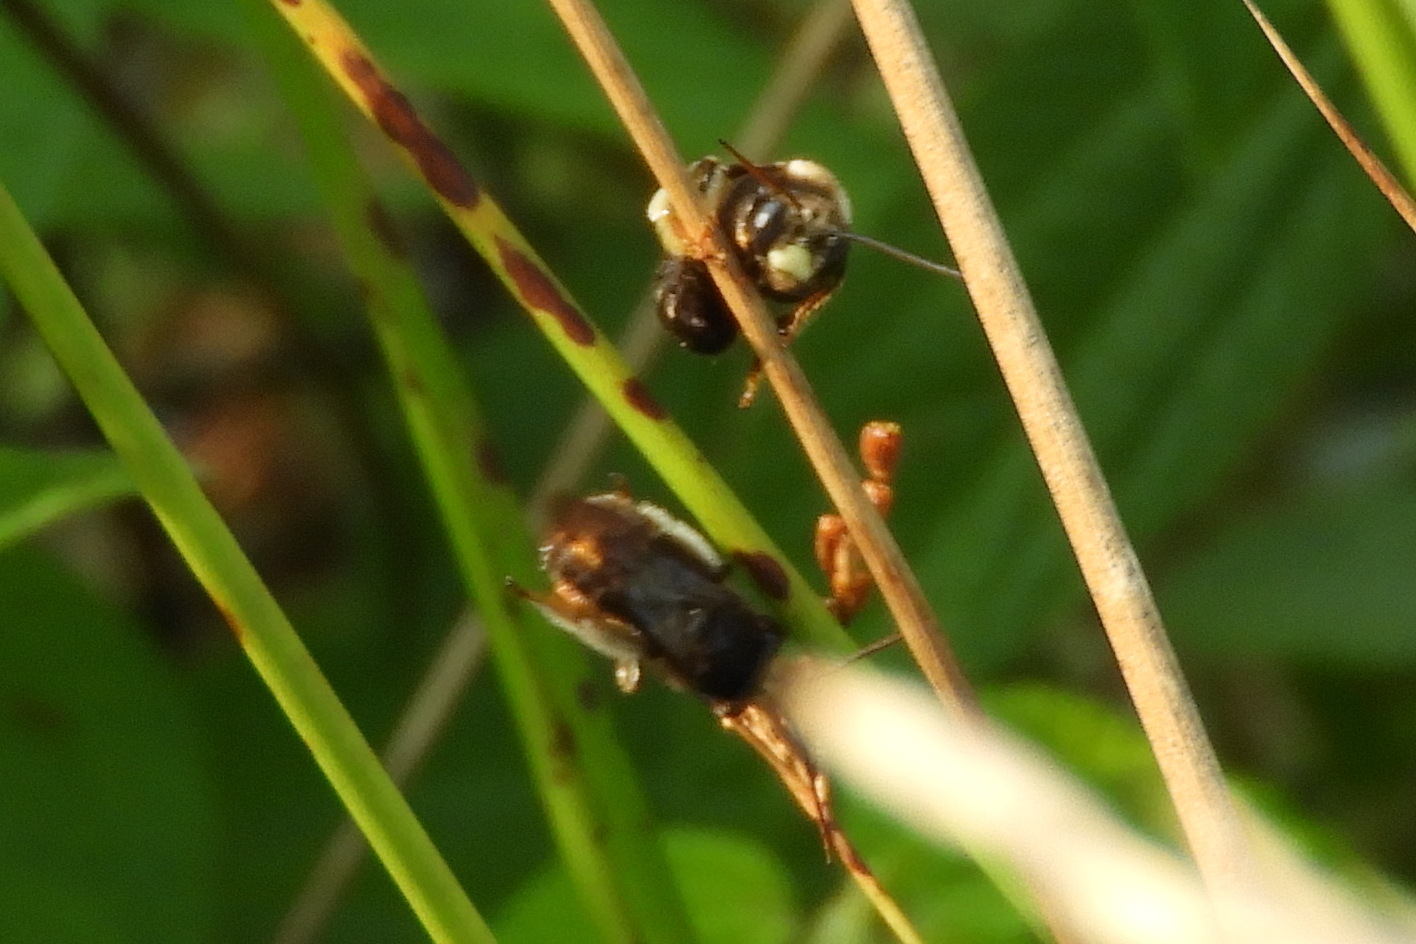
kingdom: Animalia
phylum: Arthropoda
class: Insecta
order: Hymenoptera
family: Apidae
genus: Melissodes
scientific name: Melissodes bimaculatus
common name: Two-spotted long-horned bee
